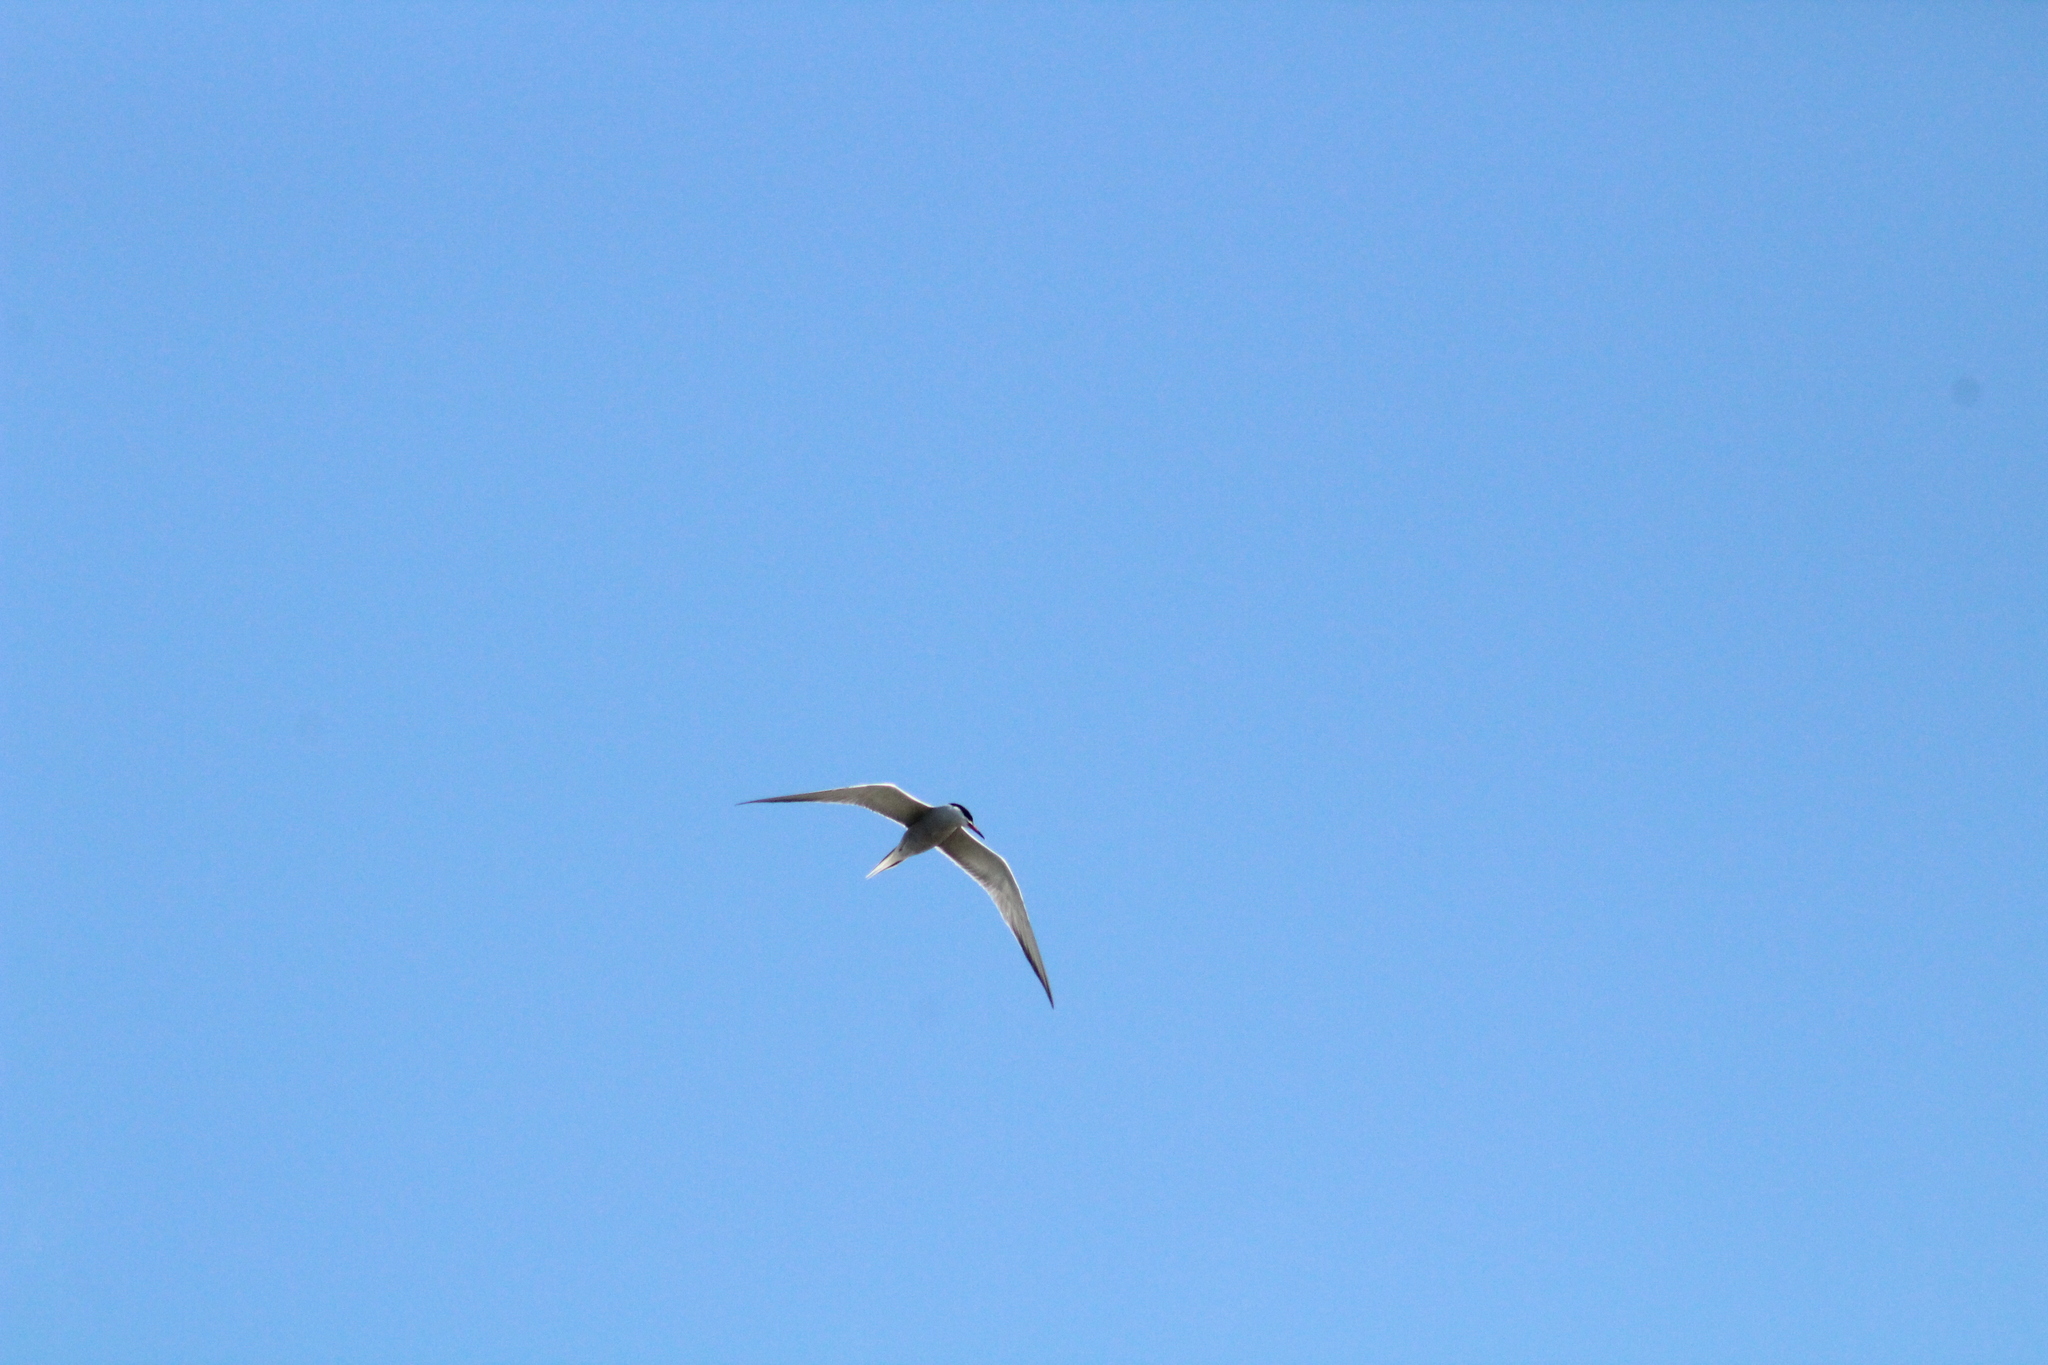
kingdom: Animalia
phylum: Chordata
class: Aves
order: Charadriiformes
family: Laridae
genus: Sterna
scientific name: Sterna hirundo
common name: Common tern
